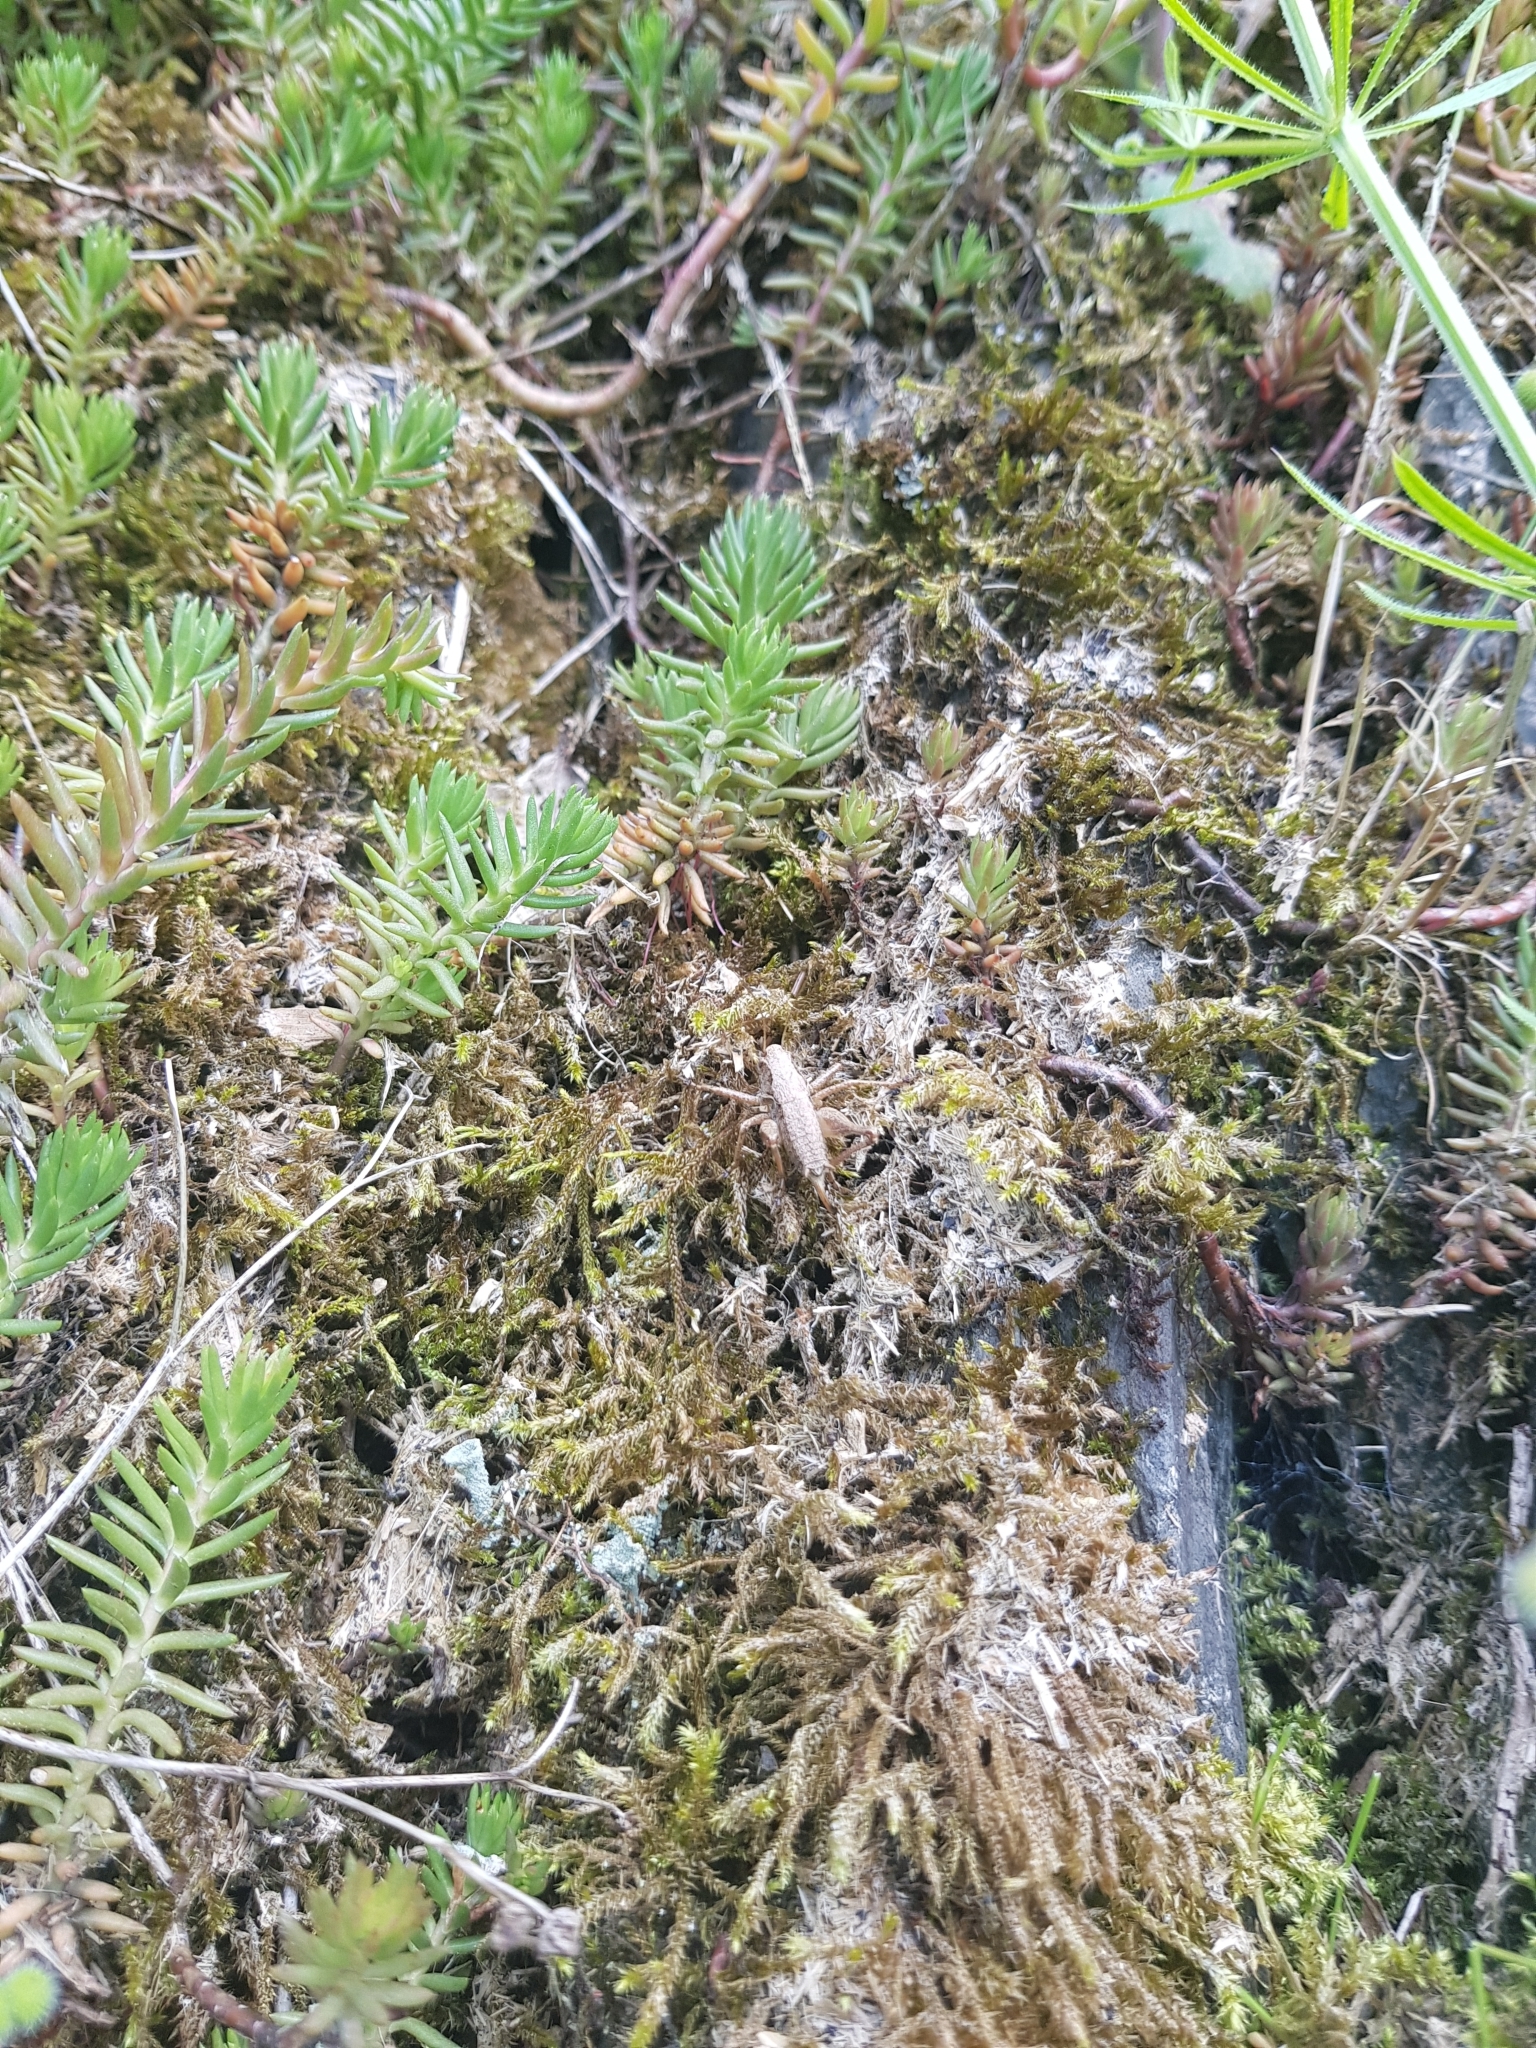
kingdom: Animalia
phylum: Arthropoda
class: Insecta
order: Orthoptera
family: Tettigoniidae
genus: Pholidoptera
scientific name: Pholidoptera griseoaptera
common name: Dark bush-cricket
